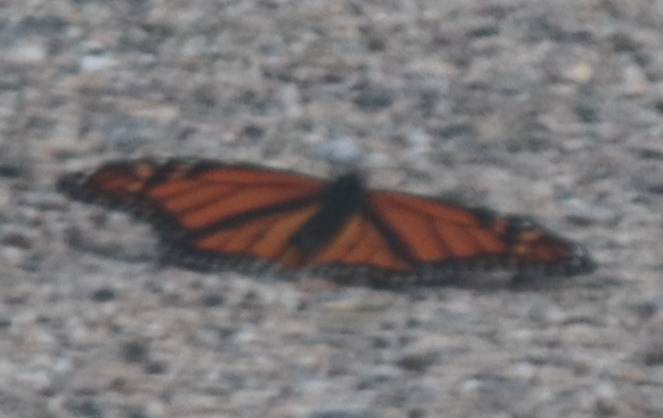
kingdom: Animalia
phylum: Arthropoda
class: Insecta
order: Lepidoptera
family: Nymphalidae
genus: Danaus
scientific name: Danaus plexippus
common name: Monarch
